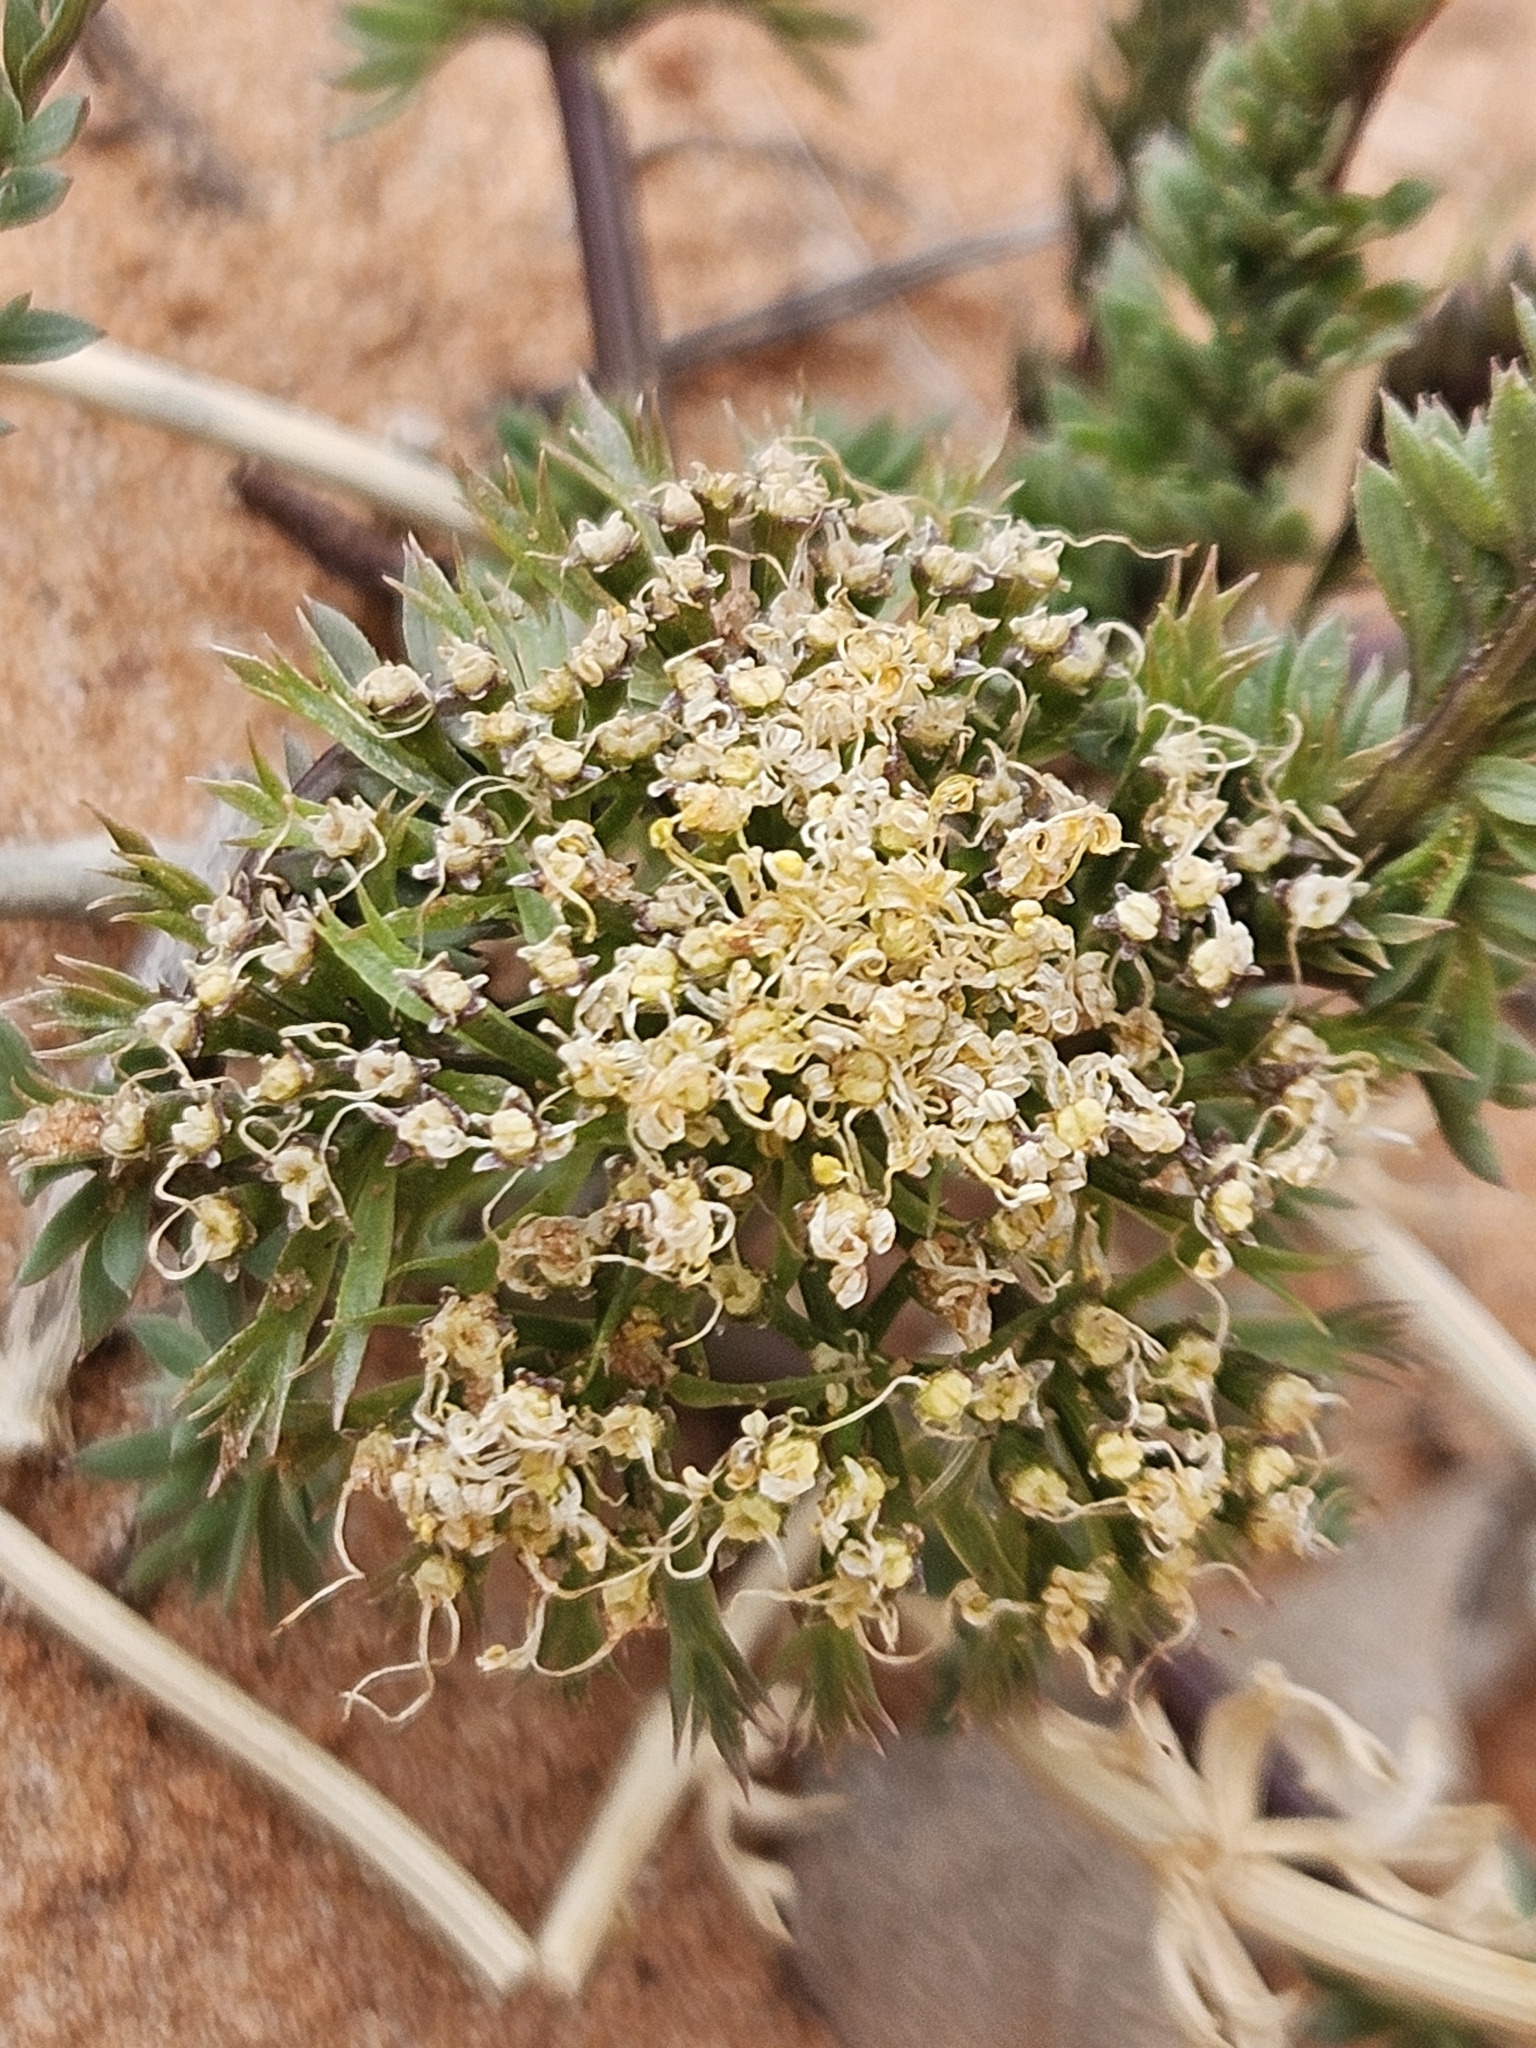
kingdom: Plantae
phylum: Tracheophyta
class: Magnoliopsida
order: Apiales
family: Apiaceae
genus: Lomatium
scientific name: Lomatium parryi
